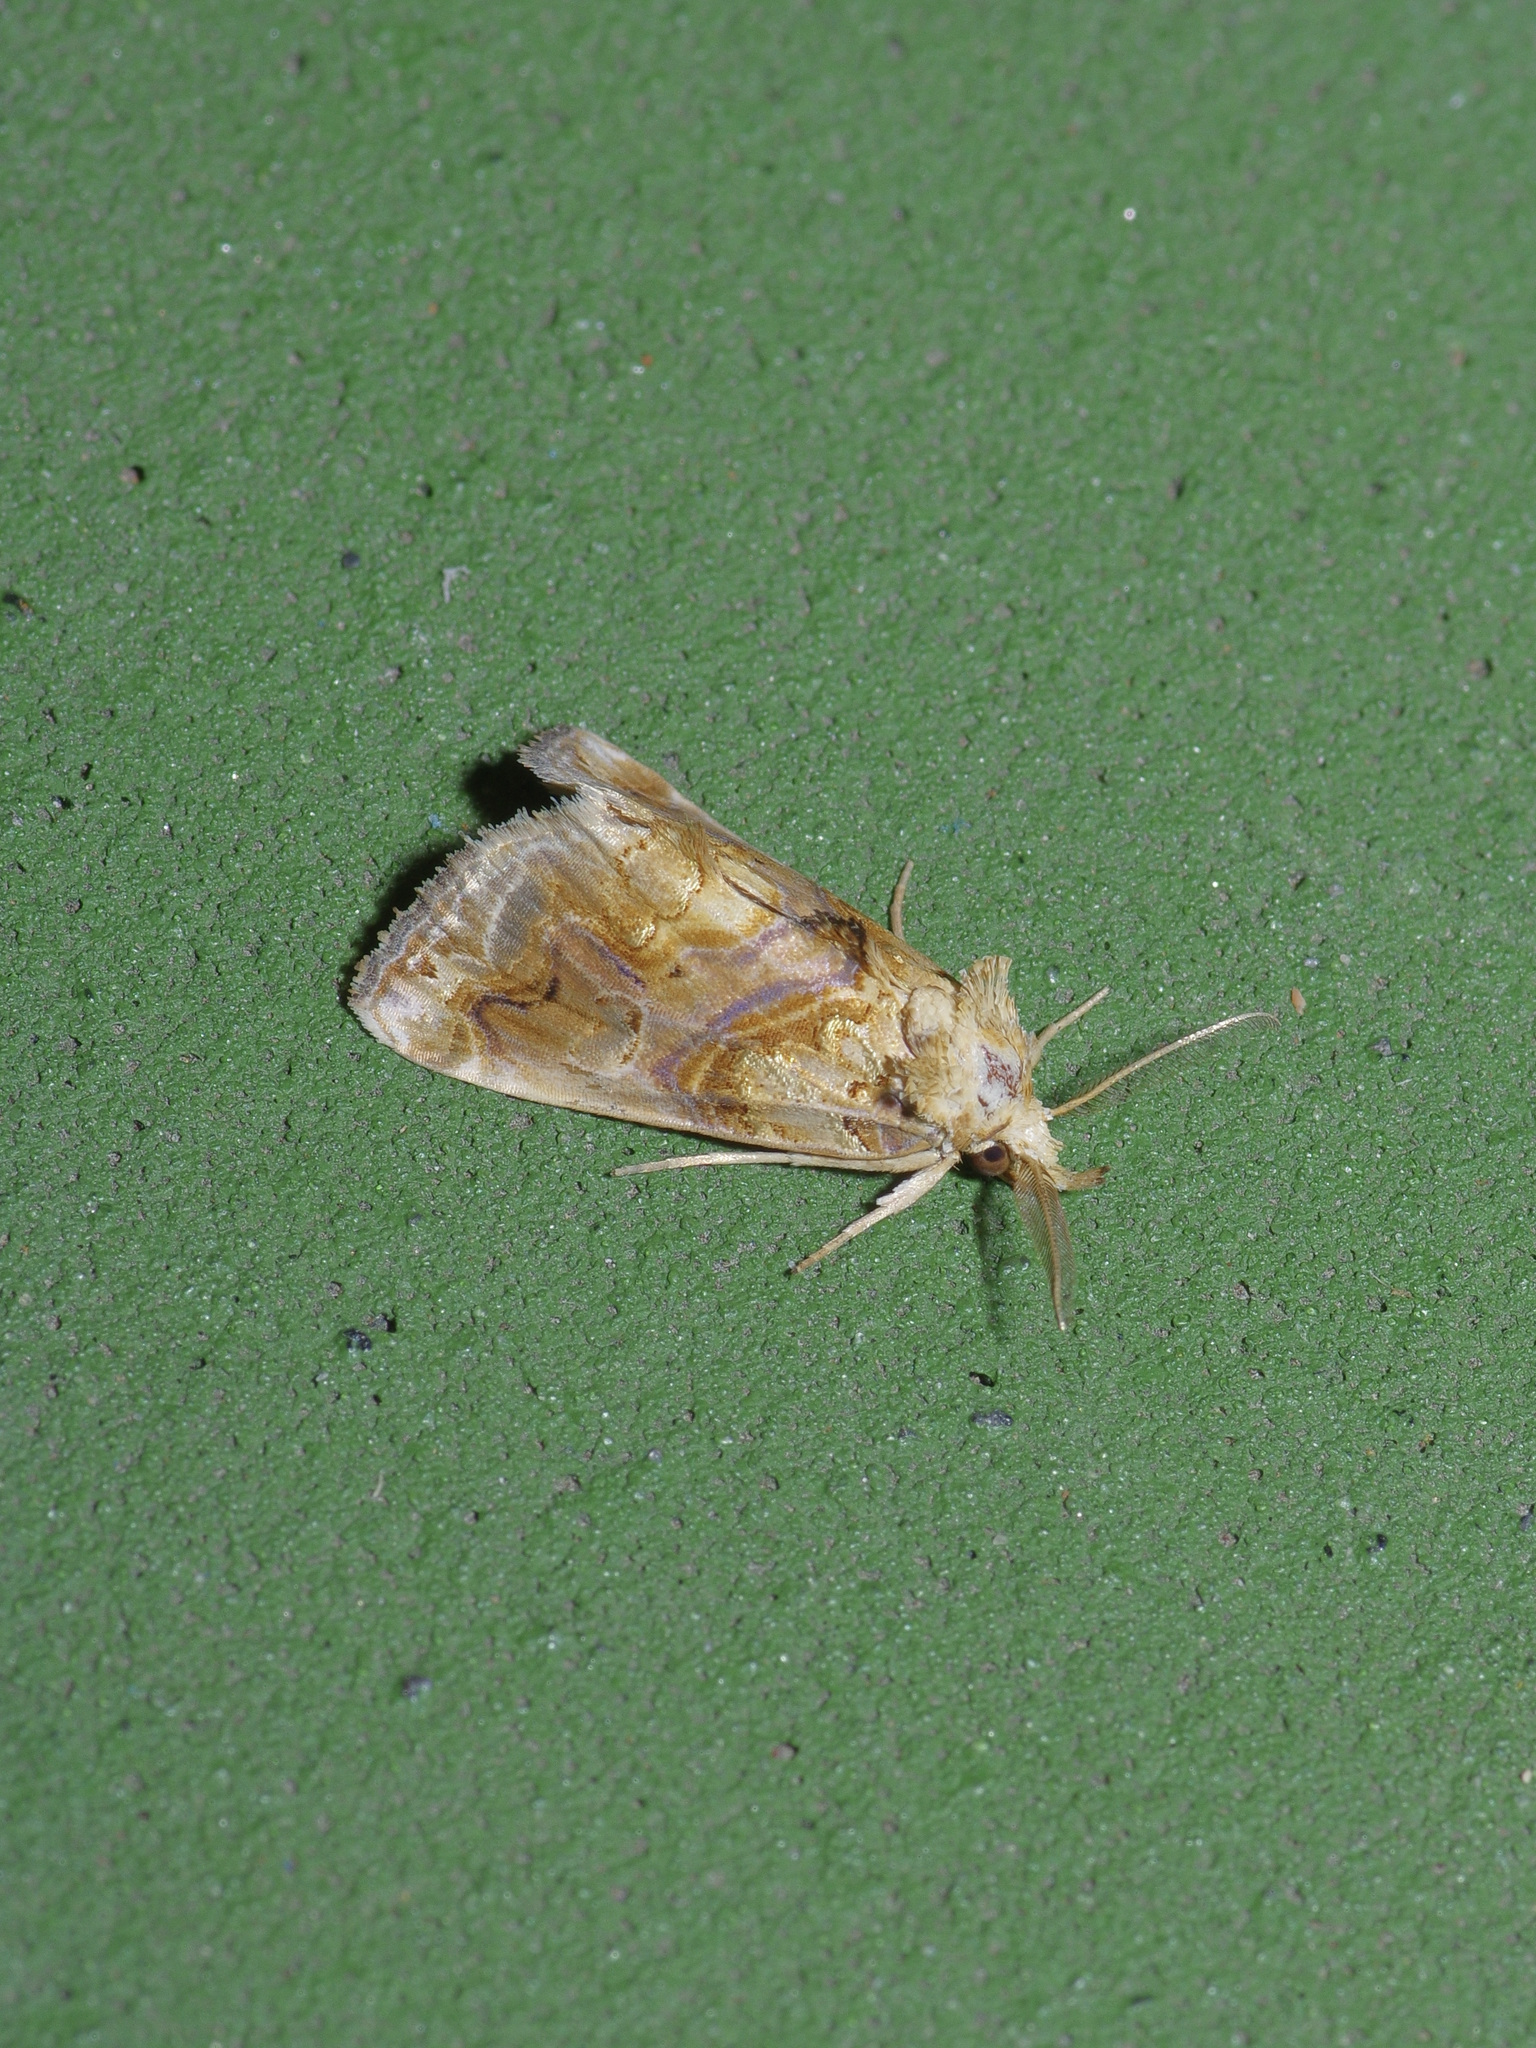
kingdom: Animalia
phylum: Arthropoda
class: Insecta
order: Lepidoptera
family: Erebidae
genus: Plusiodonta
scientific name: Plusiodonta compressipalpis
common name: Moonseed moth
